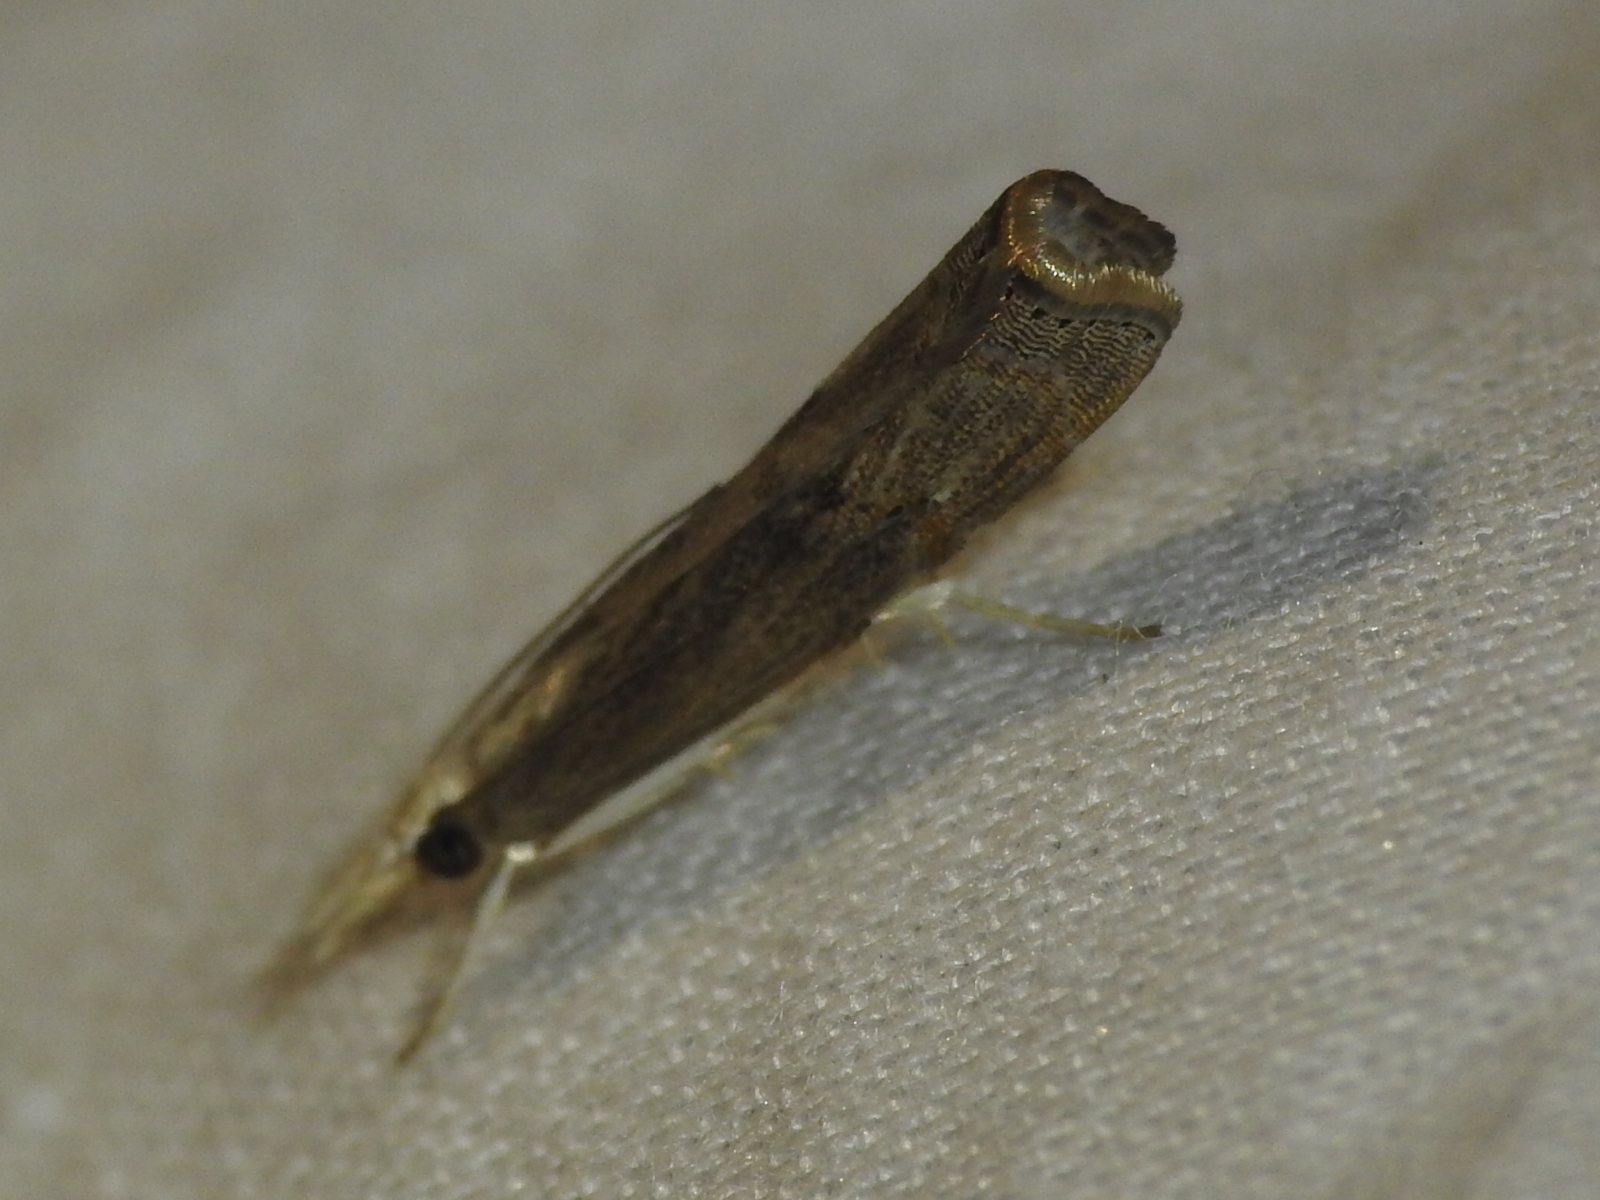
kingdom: Animalia
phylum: Arthropoda
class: Insecta
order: Lepidoptera
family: Crambidae
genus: Parapediasia
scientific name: Parapediasia teterellus
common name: Bluegrass webworm moth
